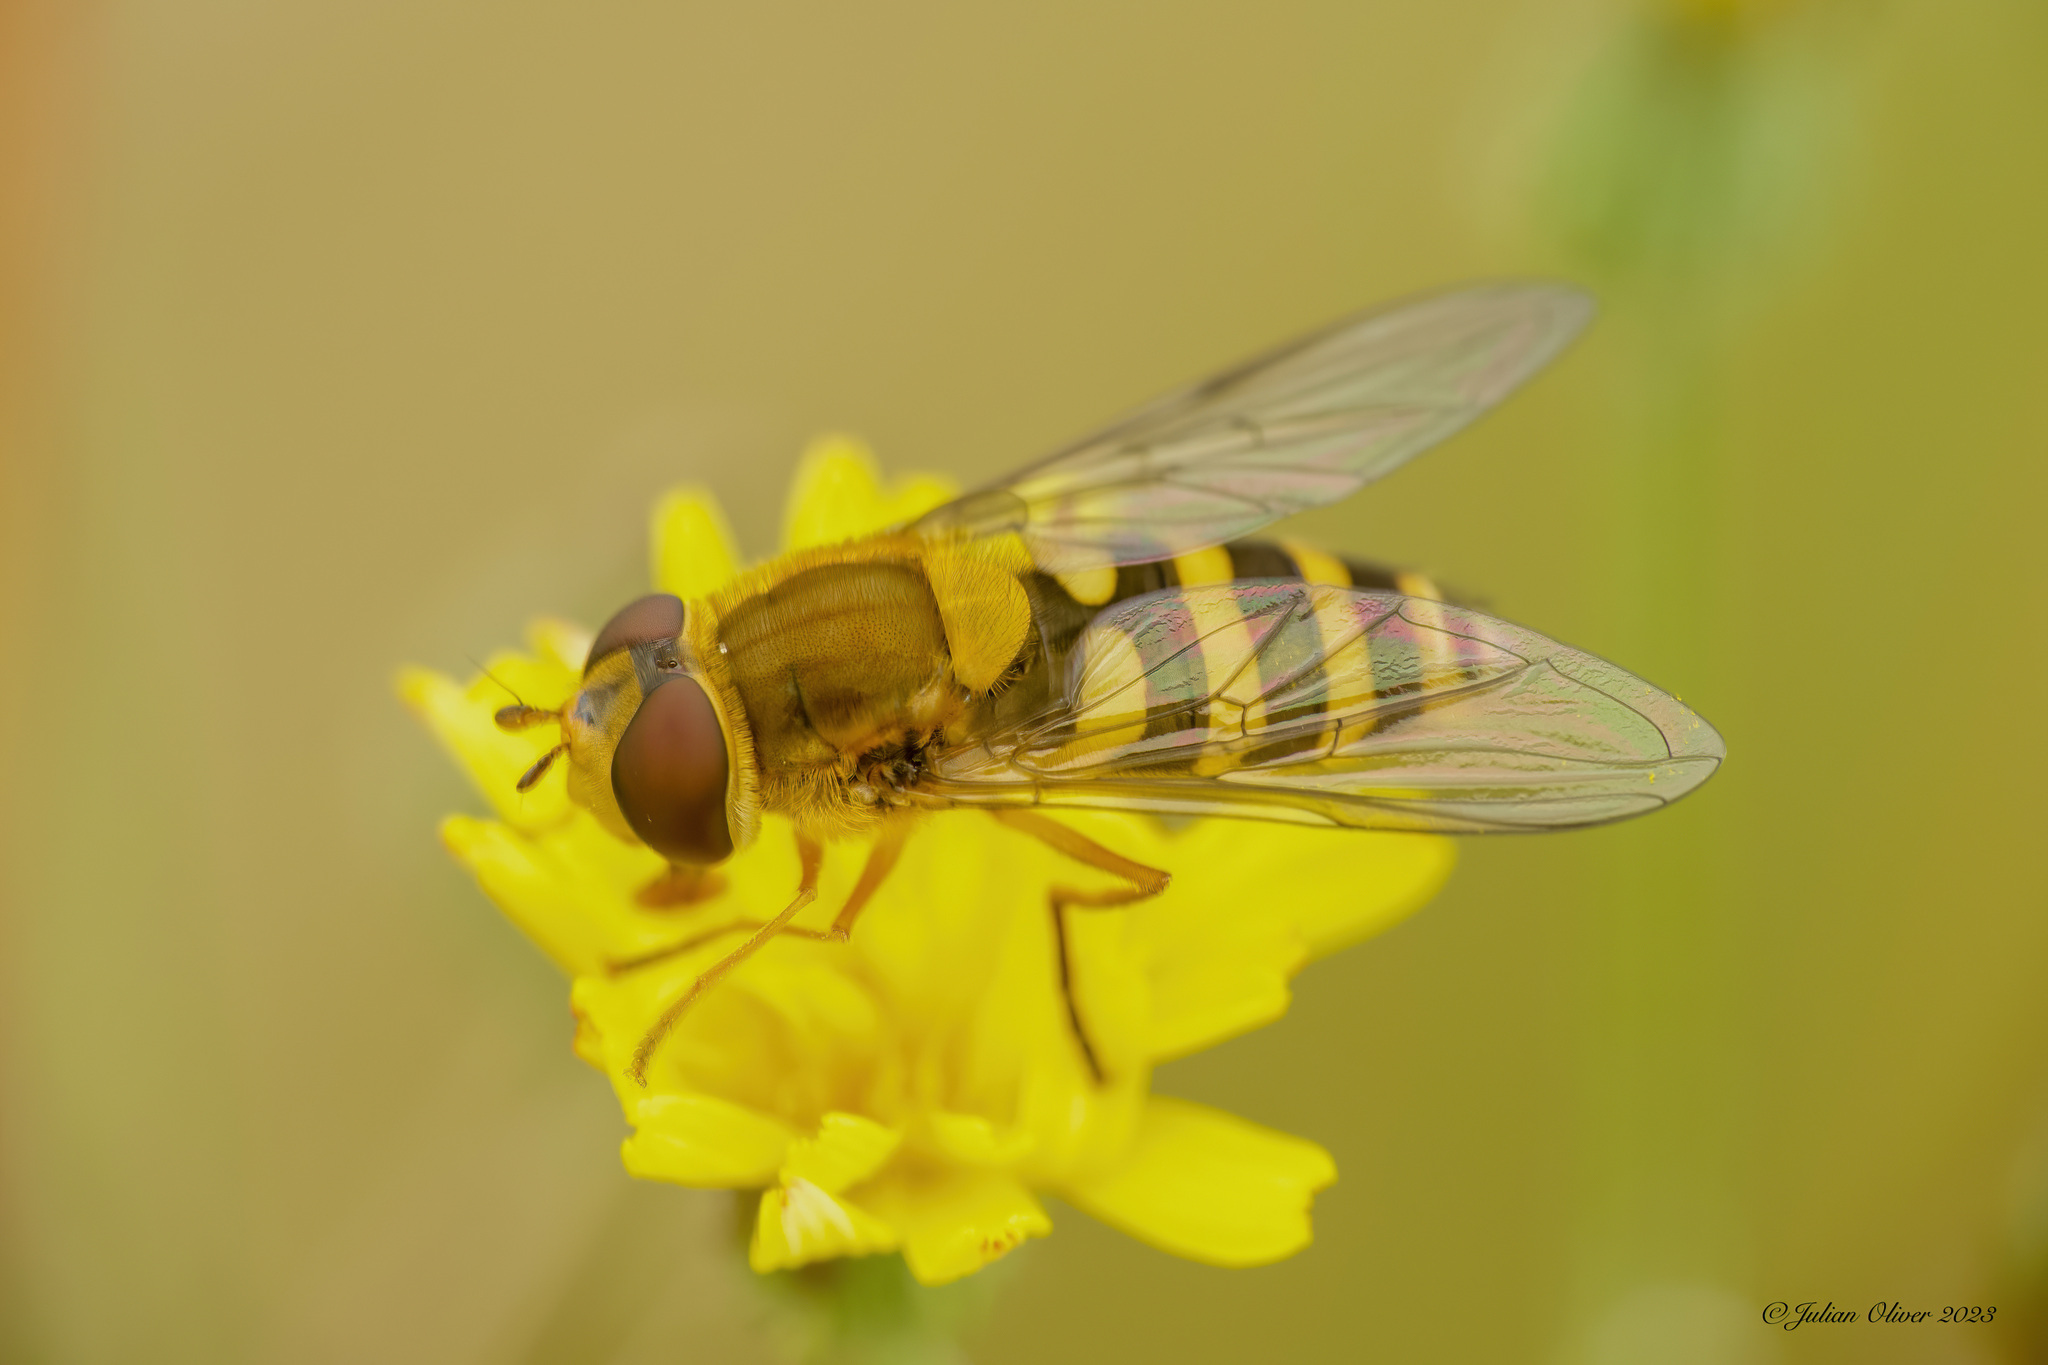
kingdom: Animalia
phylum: Arthropoda
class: Insecta
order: Diptera
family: Syrphidae
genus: Syrphus
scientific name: Syrphus ribesii
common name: Common flower fly
